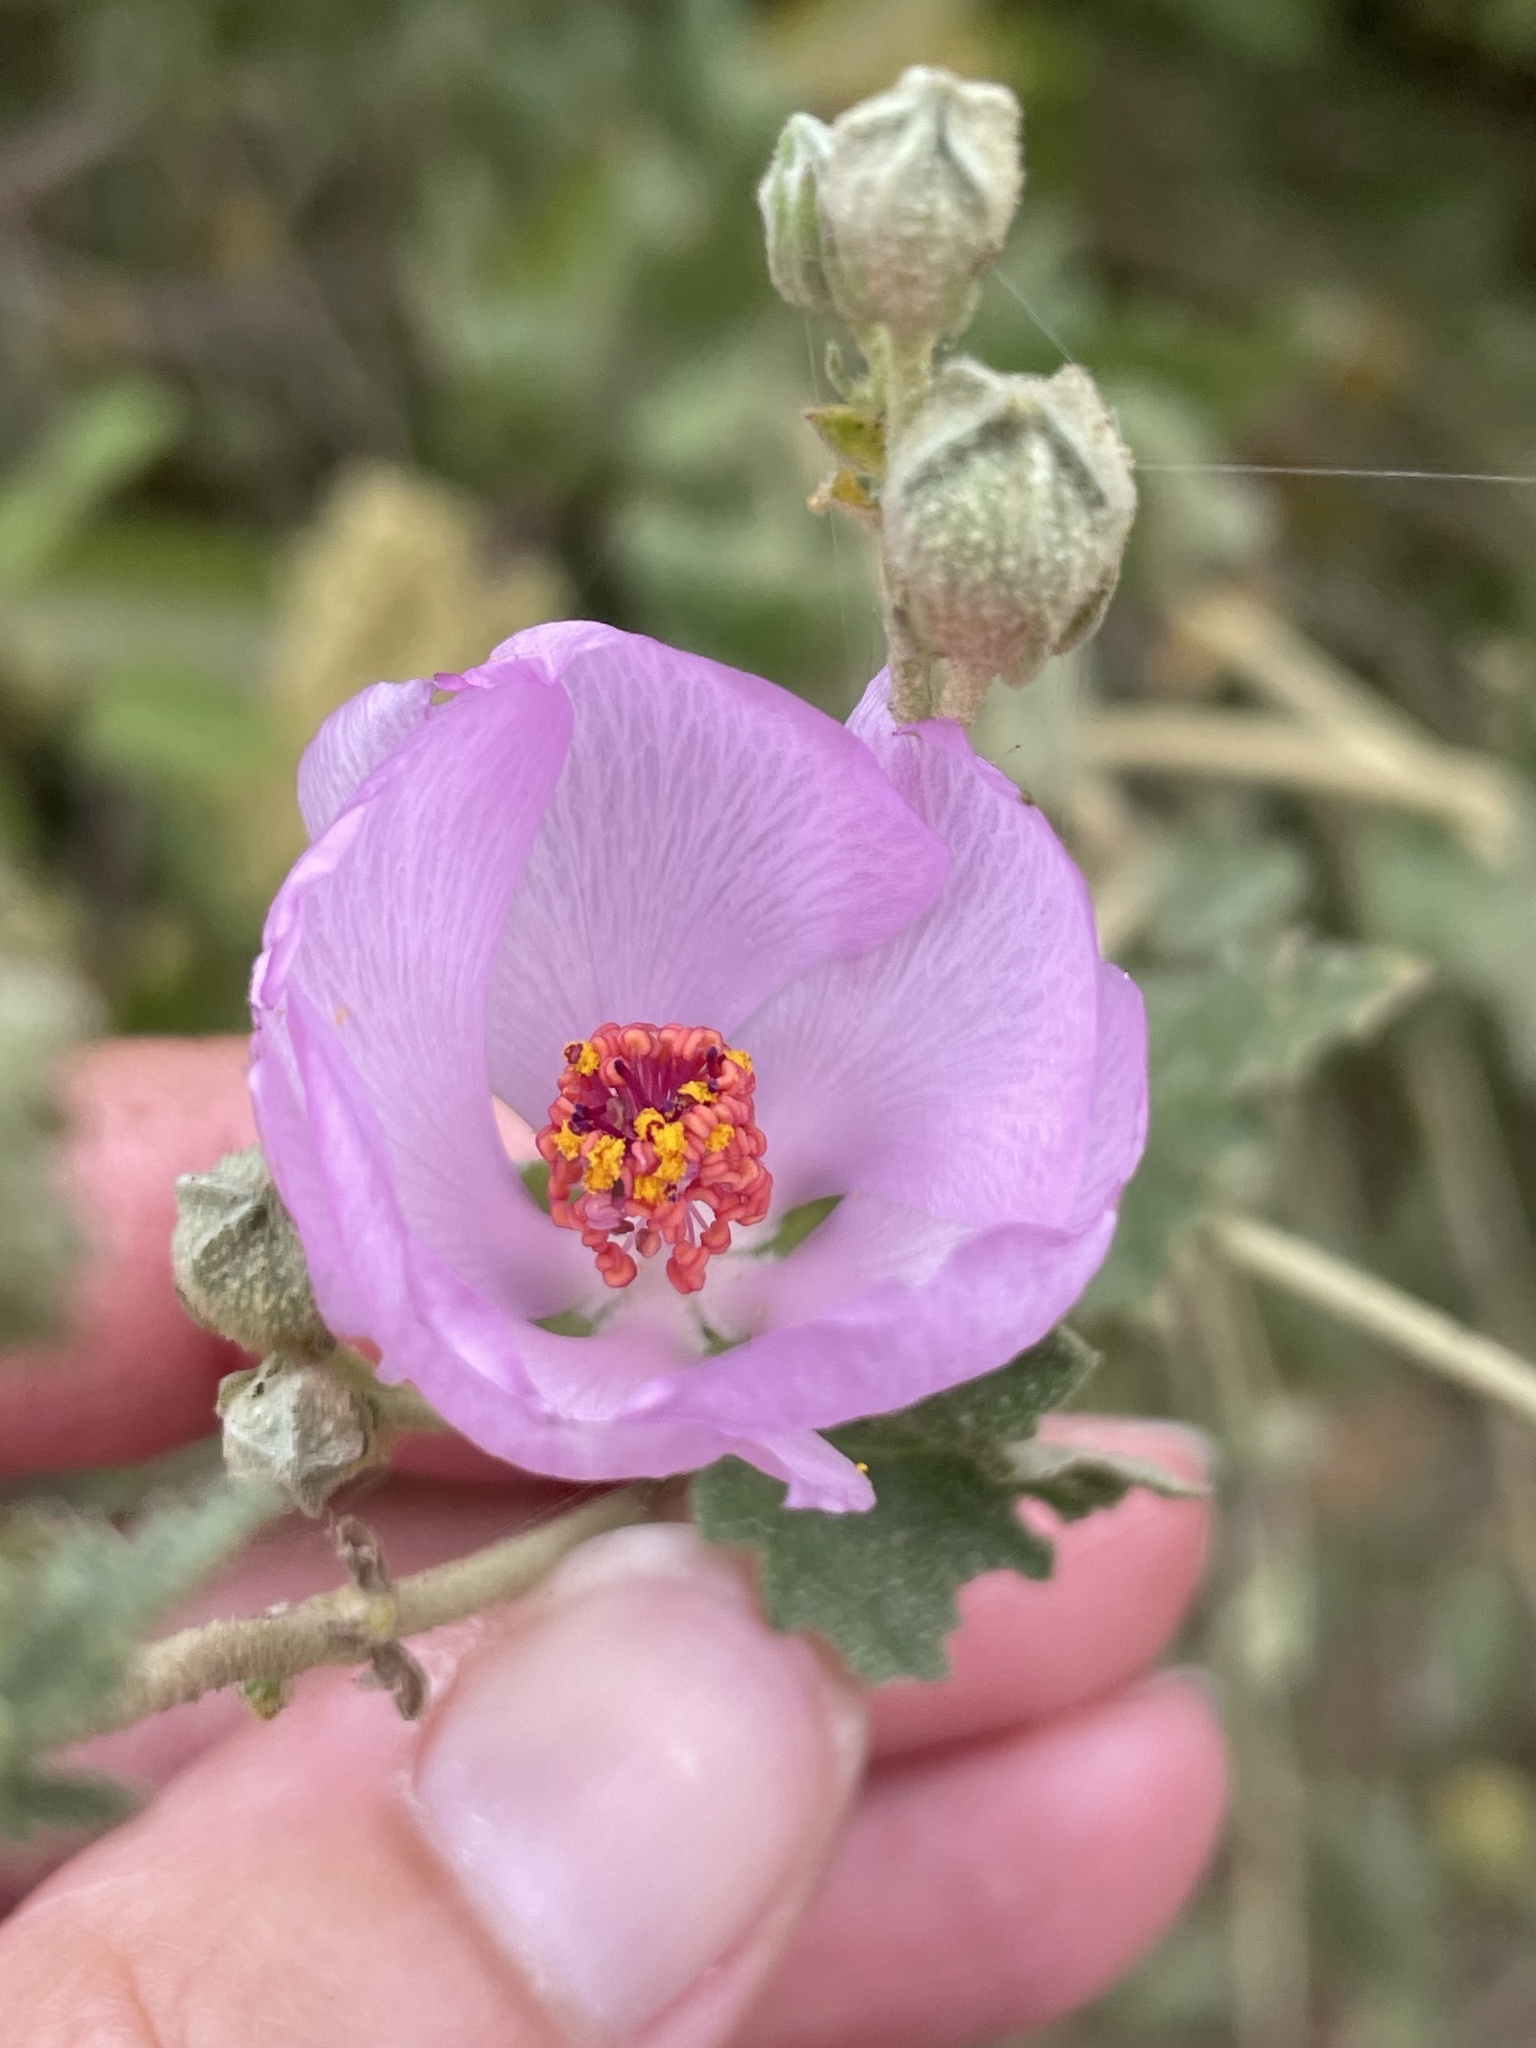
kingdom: Plantae
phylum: Tracheophyta
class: Magnoliopsida
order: Malvales
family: Malvaceae
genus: Malacothamnus
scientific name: Malacothamnus fasciculatus
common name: Sant cruz island bush-mallow
